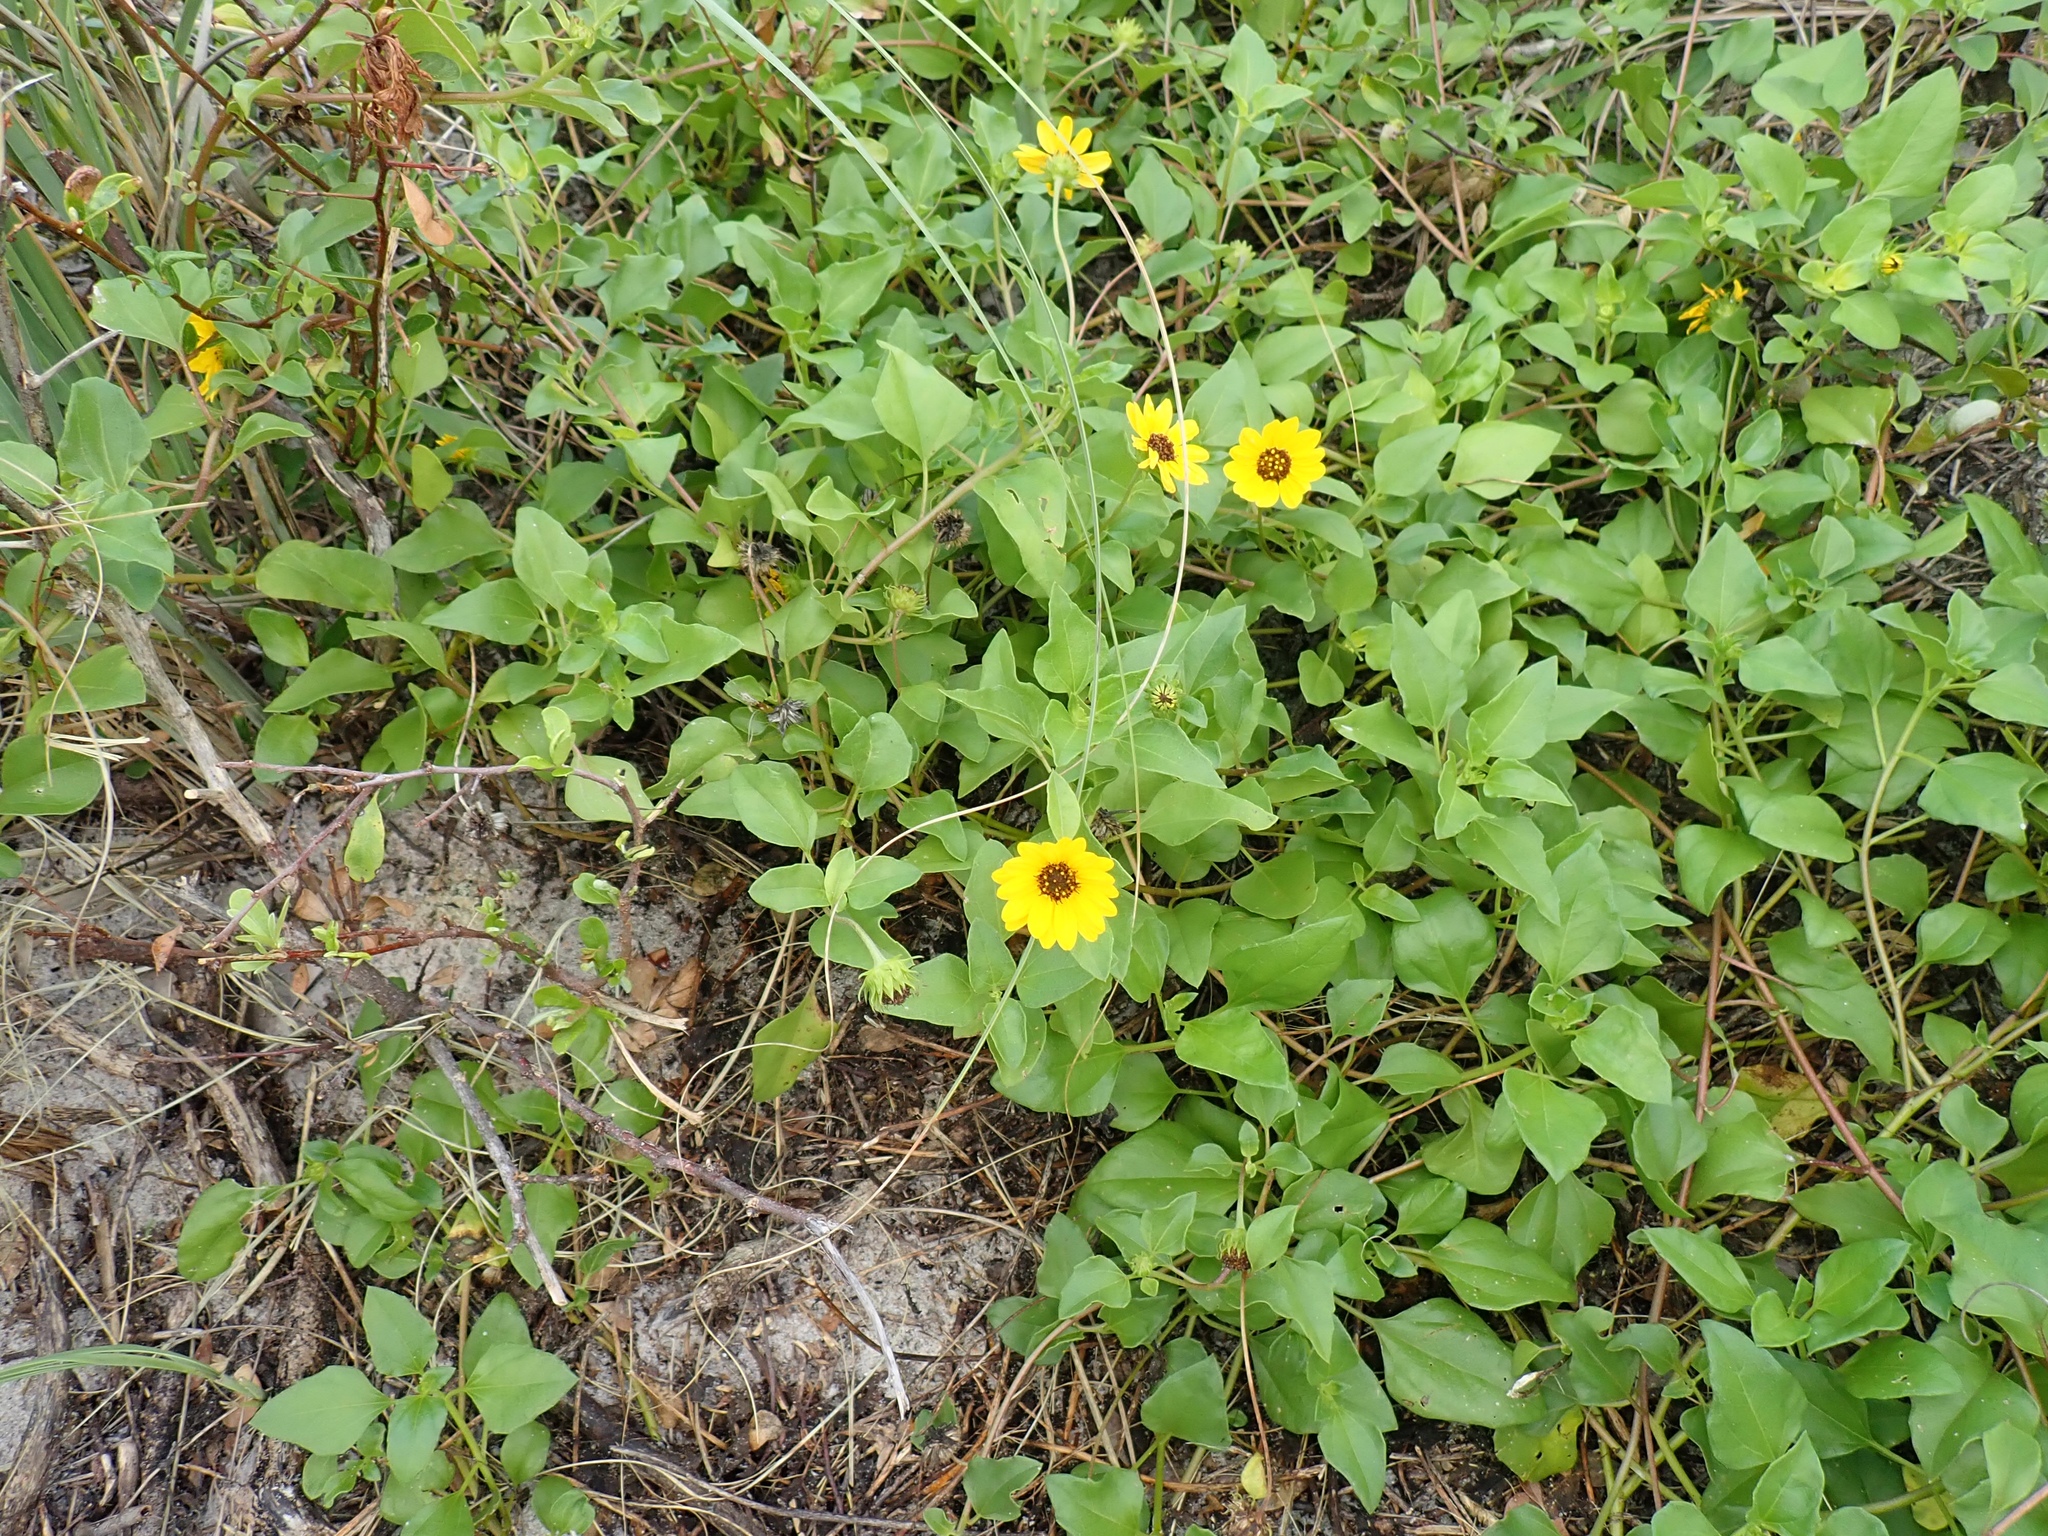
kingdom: Plantae
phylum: Tracheophyta
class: Magnoliopsida
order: Asterales
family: Asteraceae
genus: Helianthus
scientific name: Helianthus debilis
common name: Weak sunflower
